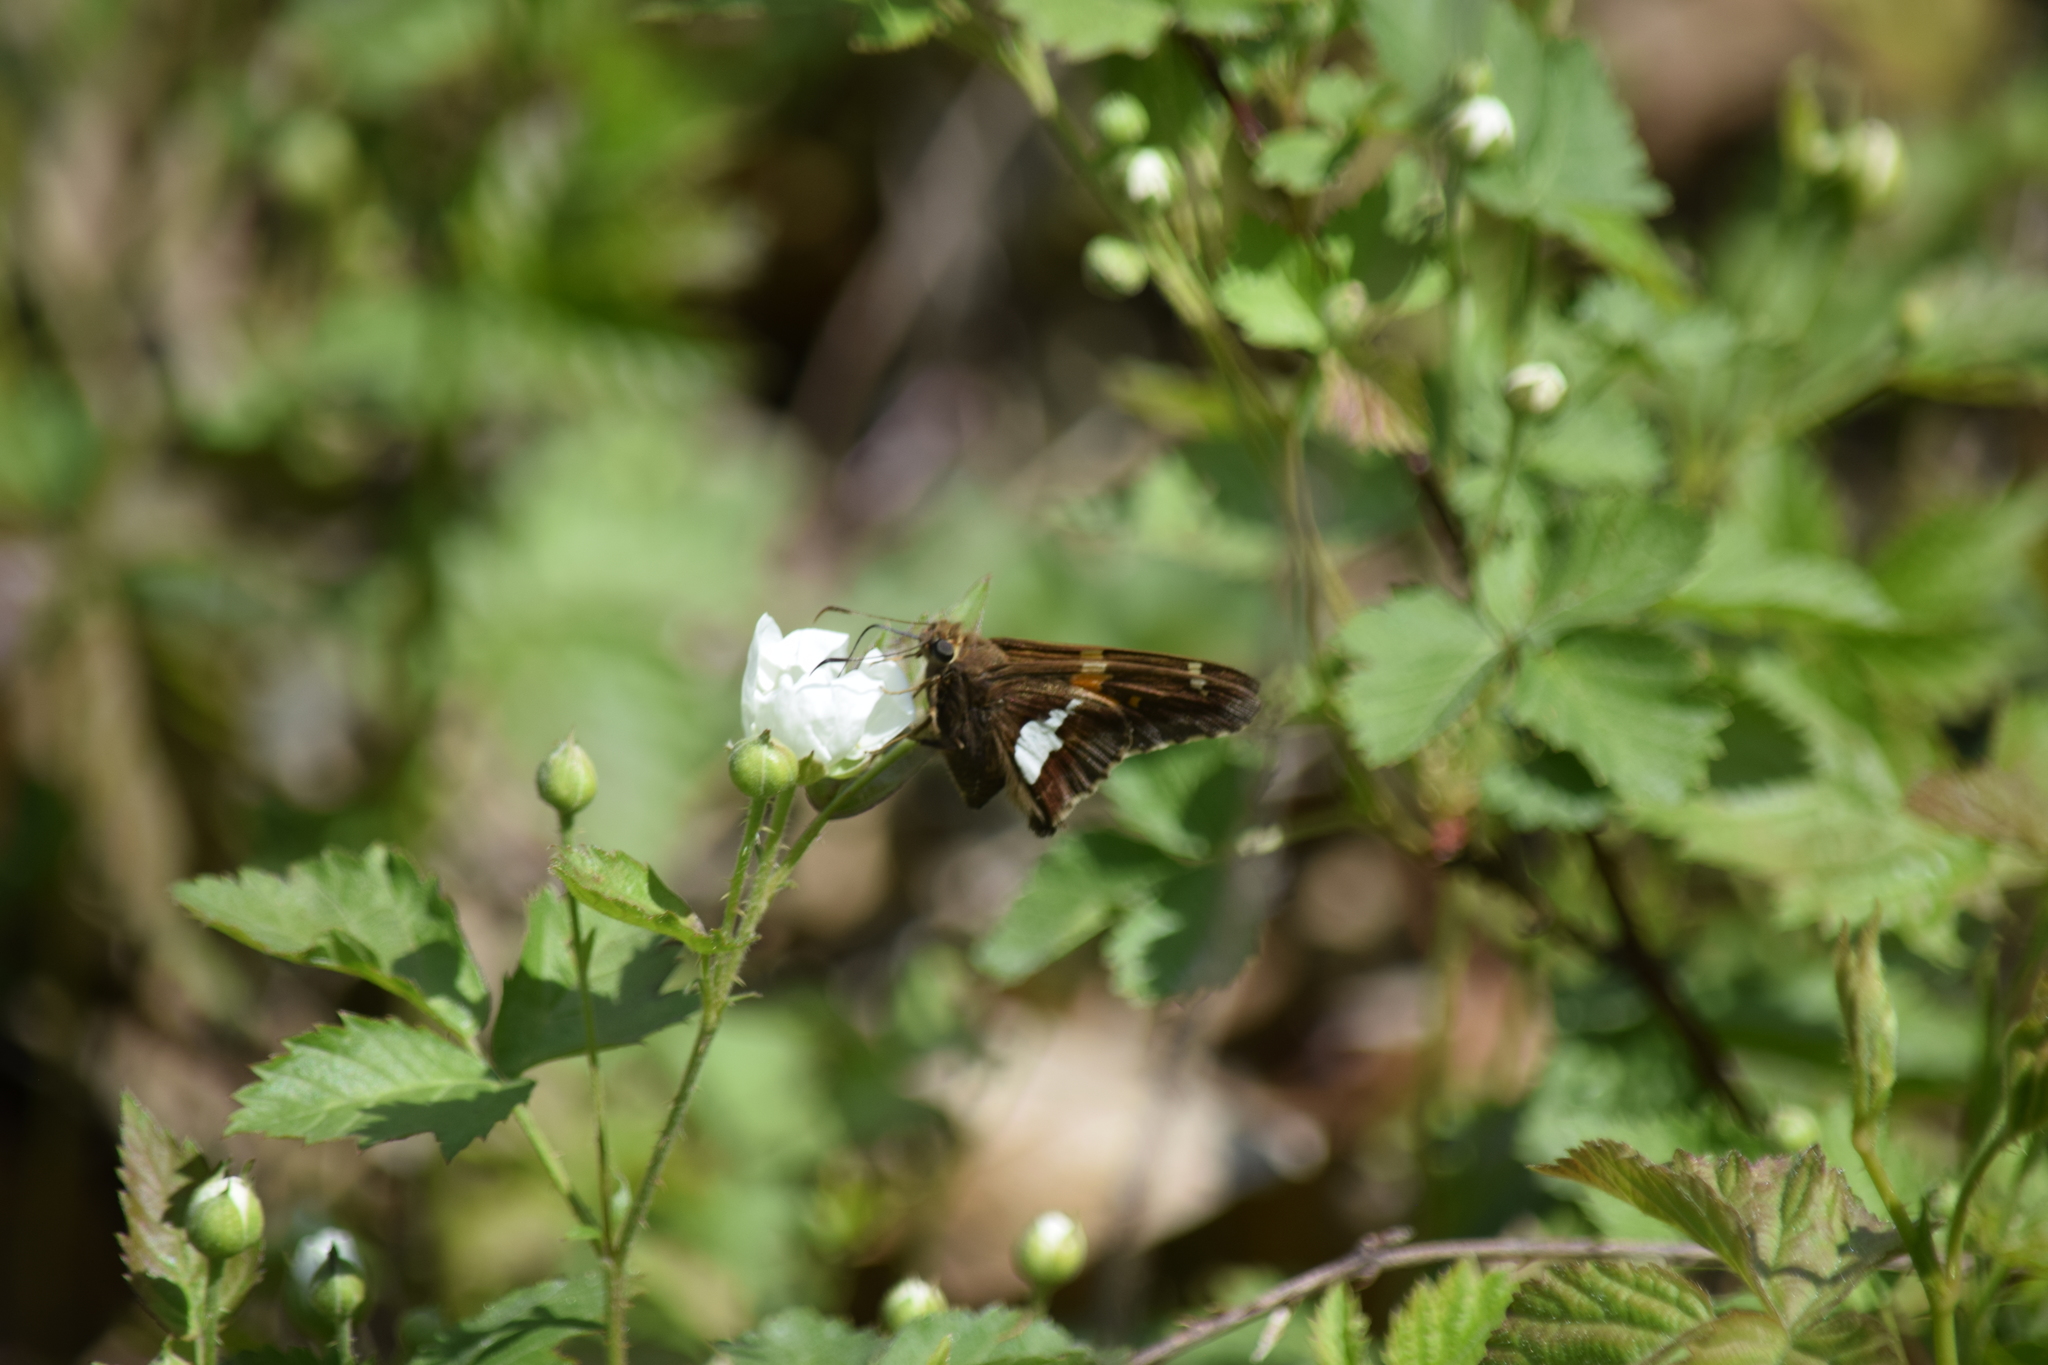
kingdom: Animalia
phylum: Arthropoda
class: Insecta
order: Lepidoptera
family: Hesperiidae
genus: Epargyreus
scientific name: Epargyreus clarus
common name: Silver-spotted skipper
